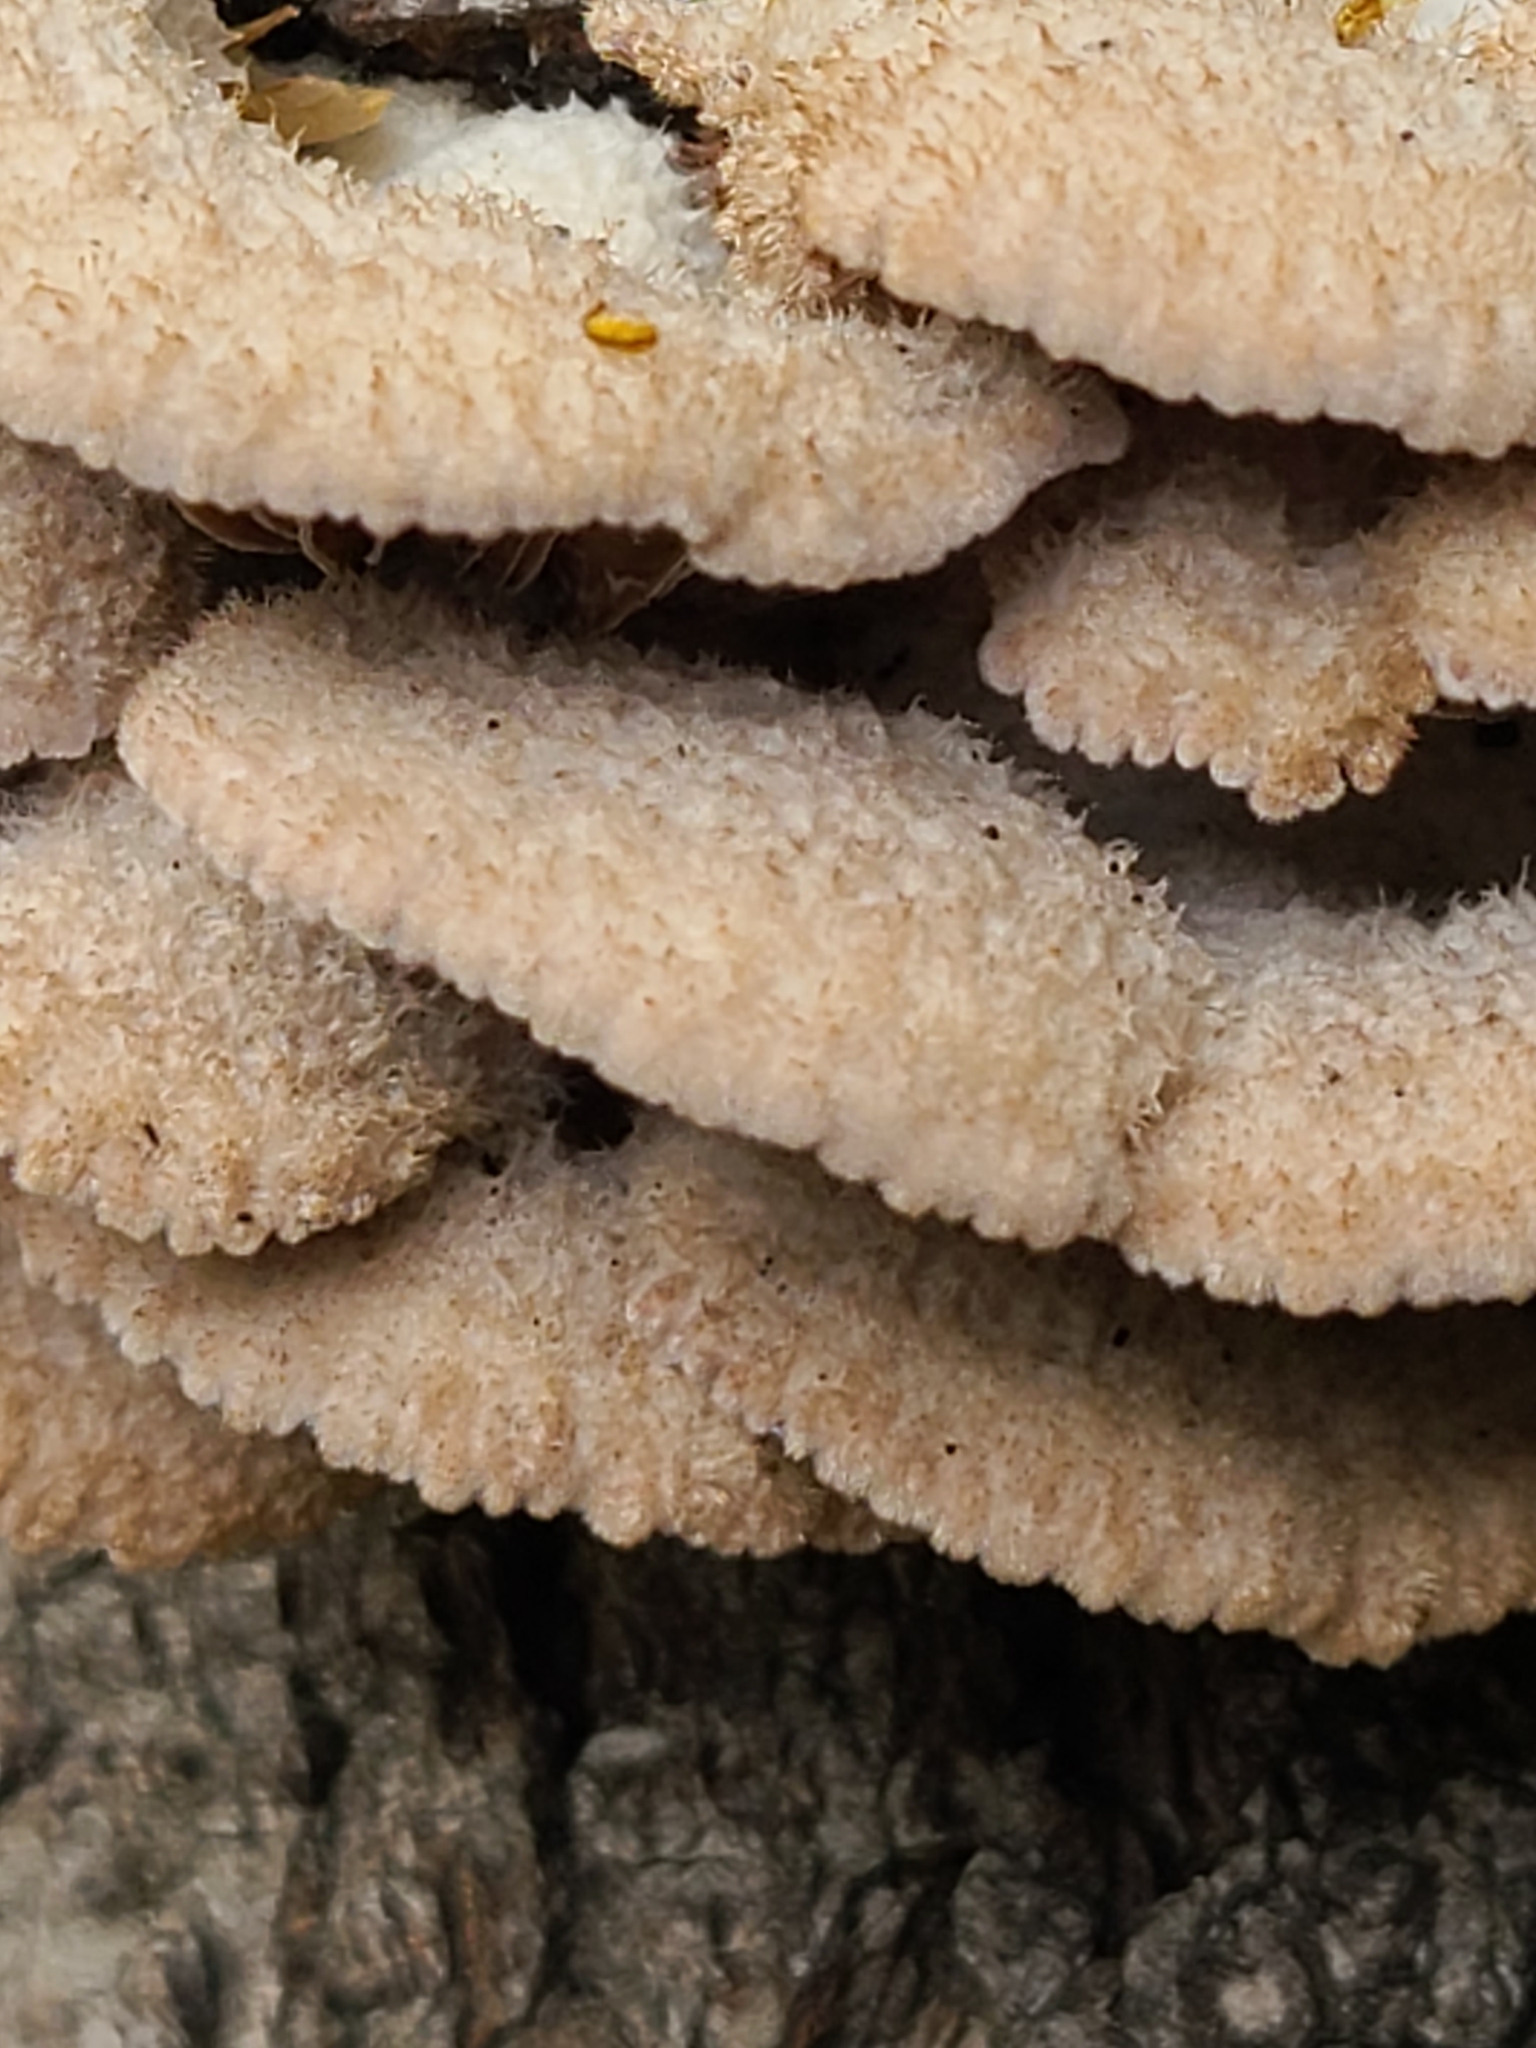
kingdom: Fungi
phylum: Basidiomycota
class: Agaricomycetes
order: Agaricales
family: Schizophyllaceae
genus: Schizophyllum
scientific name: Schizophyllum commune
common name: Common porecrust
